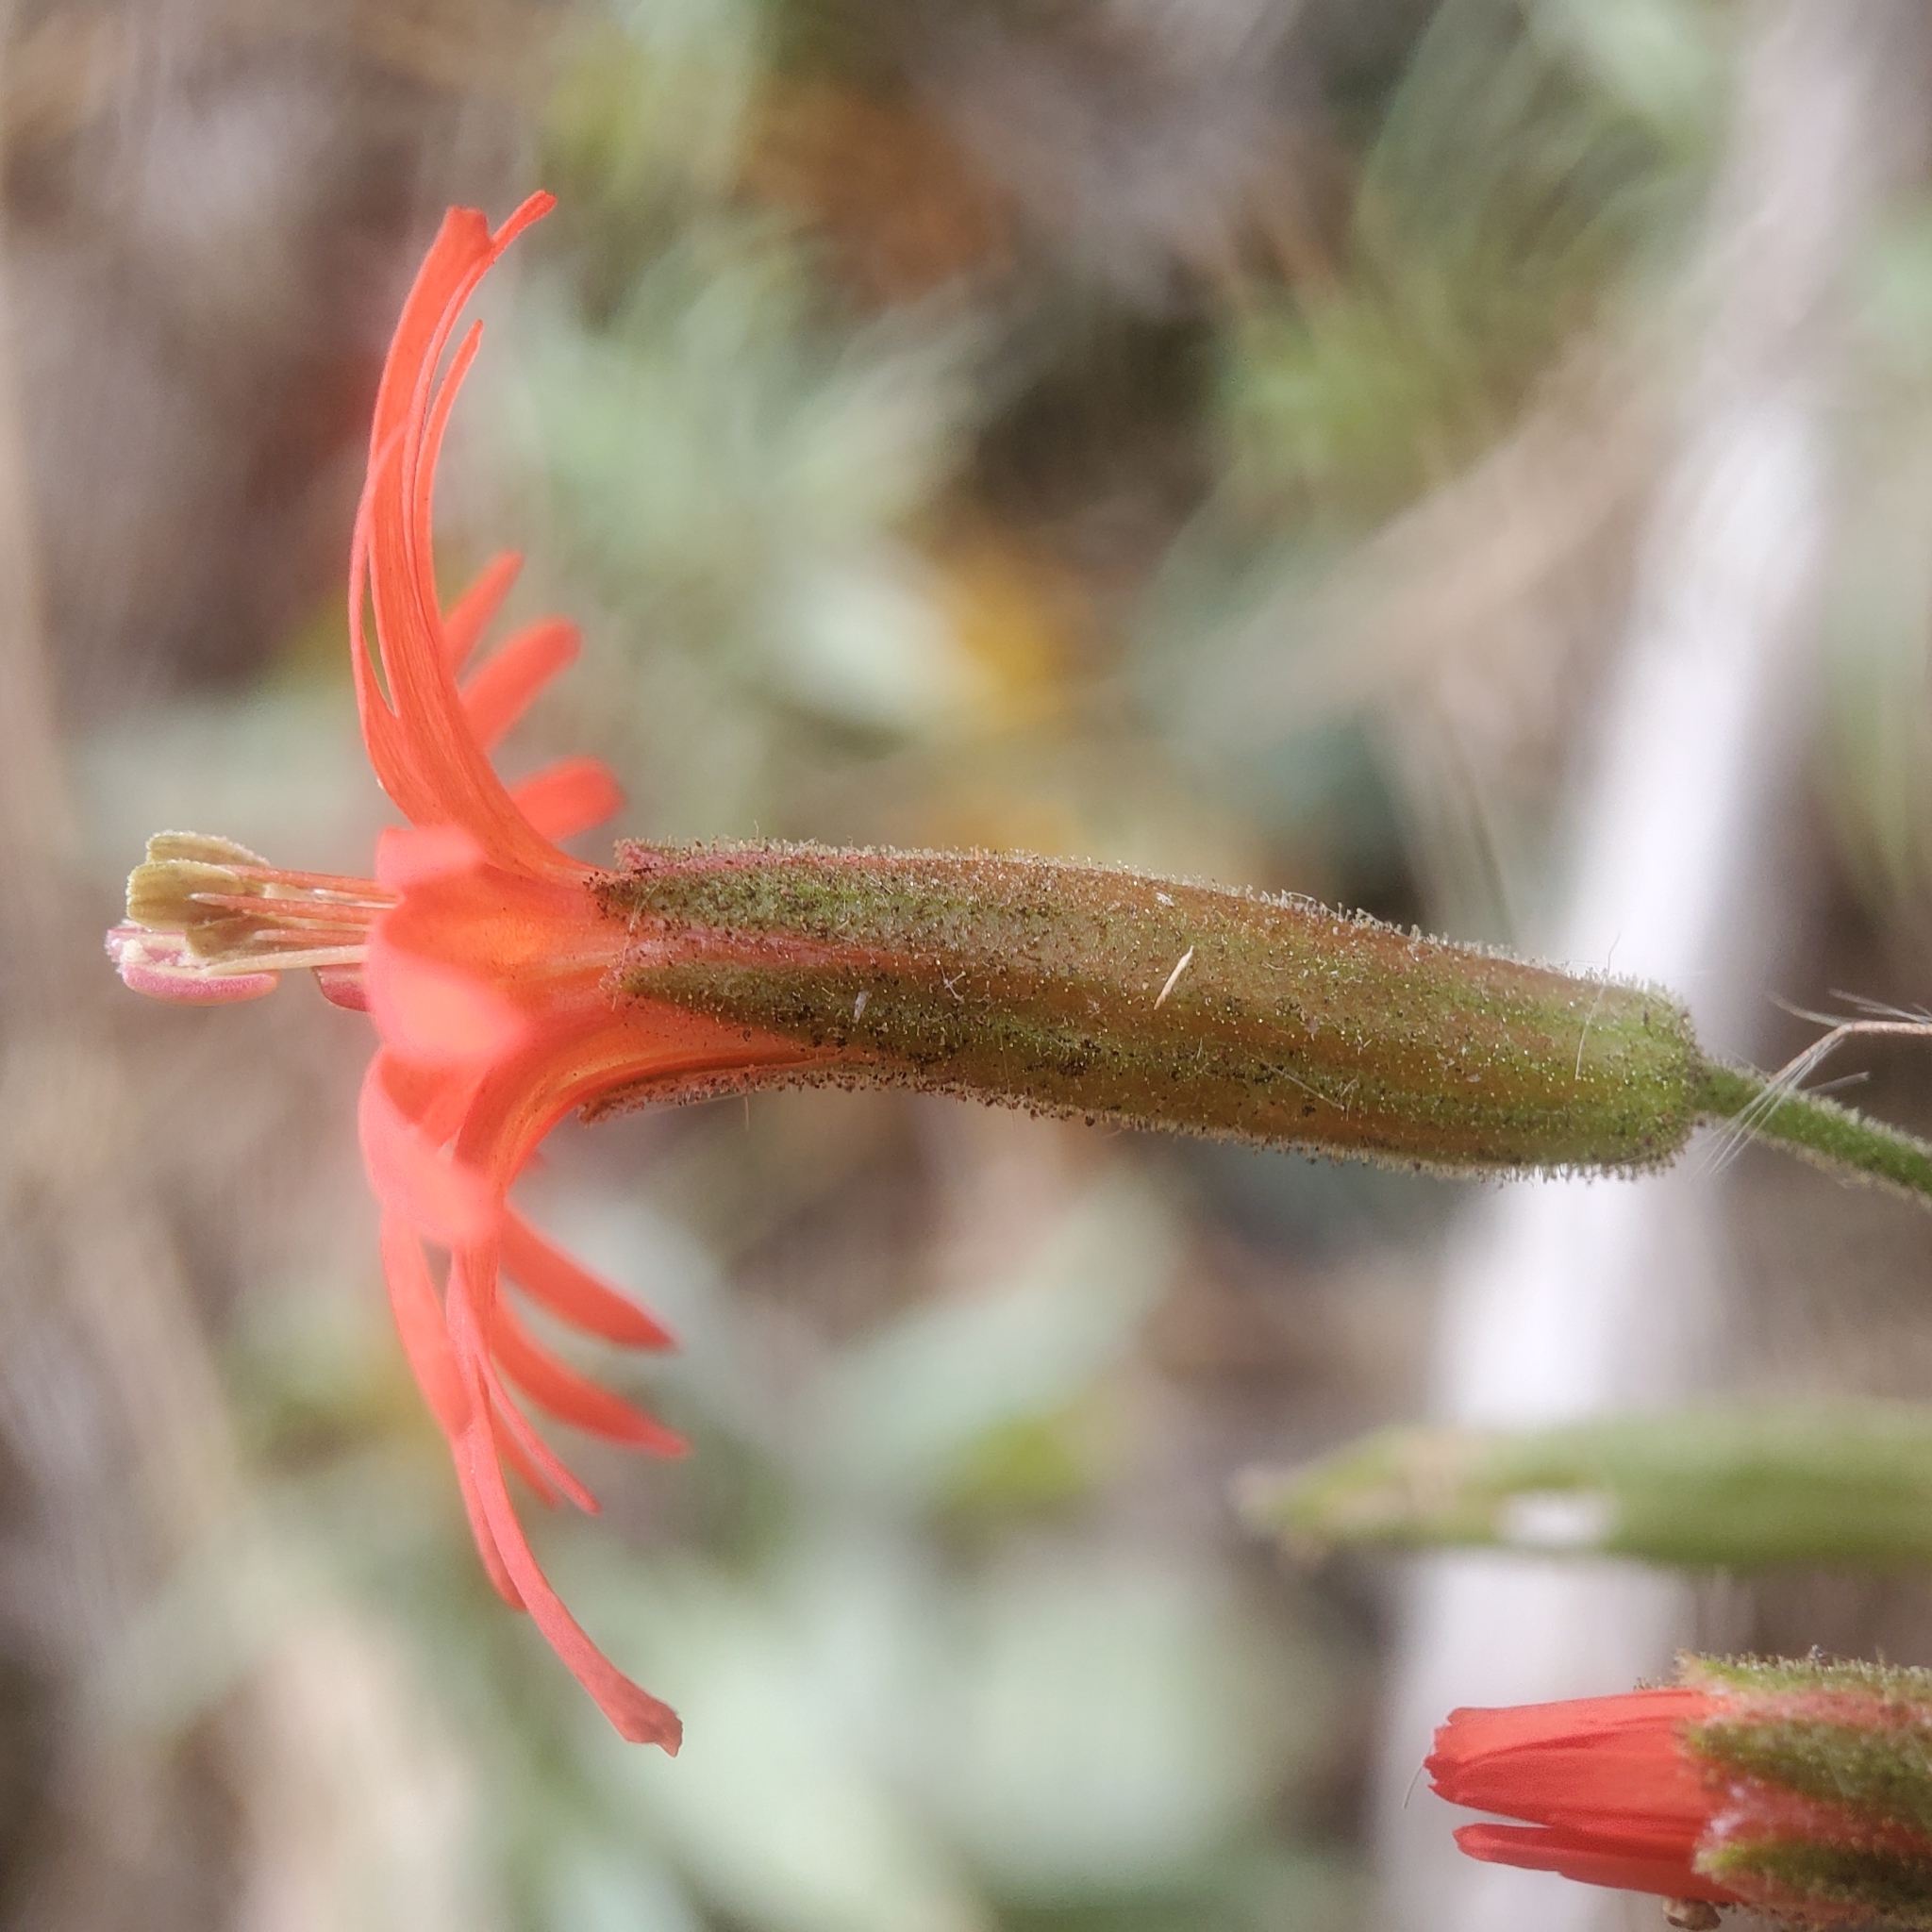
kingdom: Plantae
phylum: Tracheophyta
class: Magnoliopsida
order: Caryophyllales
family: Caryophyllaceae
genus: Silene
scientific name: Silene laciniata
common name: Indian-pink
